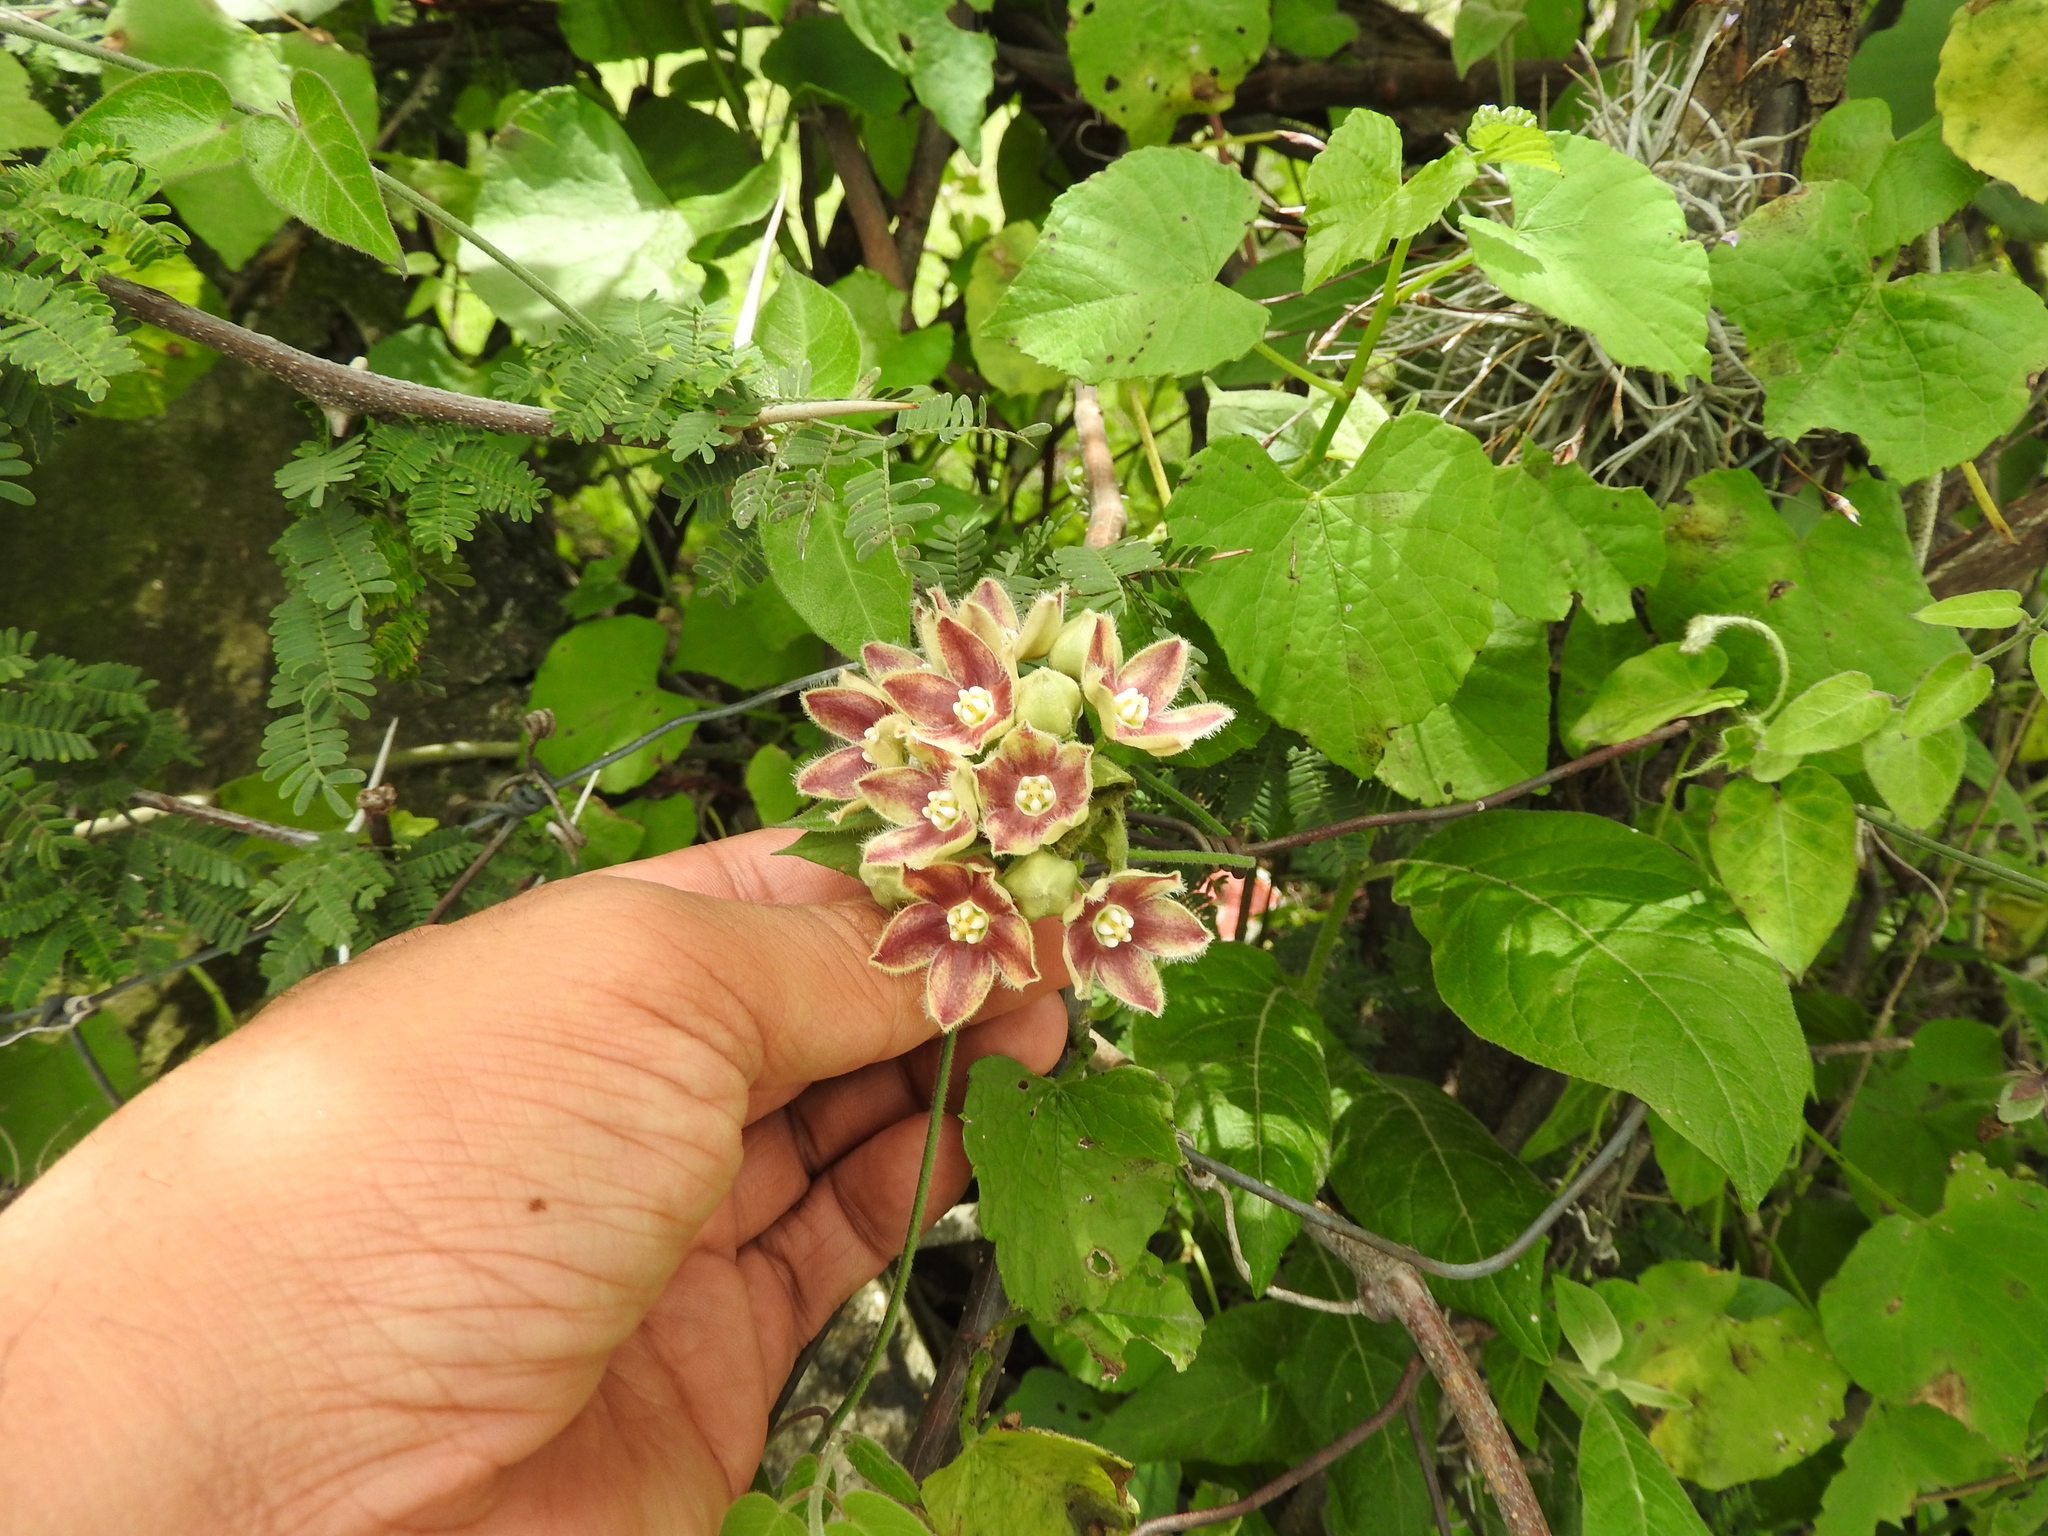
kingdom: Plantae
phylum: Tracheophyta
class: Magnoliopsida
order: Gentianales
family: Apocynaceae
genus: Funastrum
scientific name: Funastrum elegans
